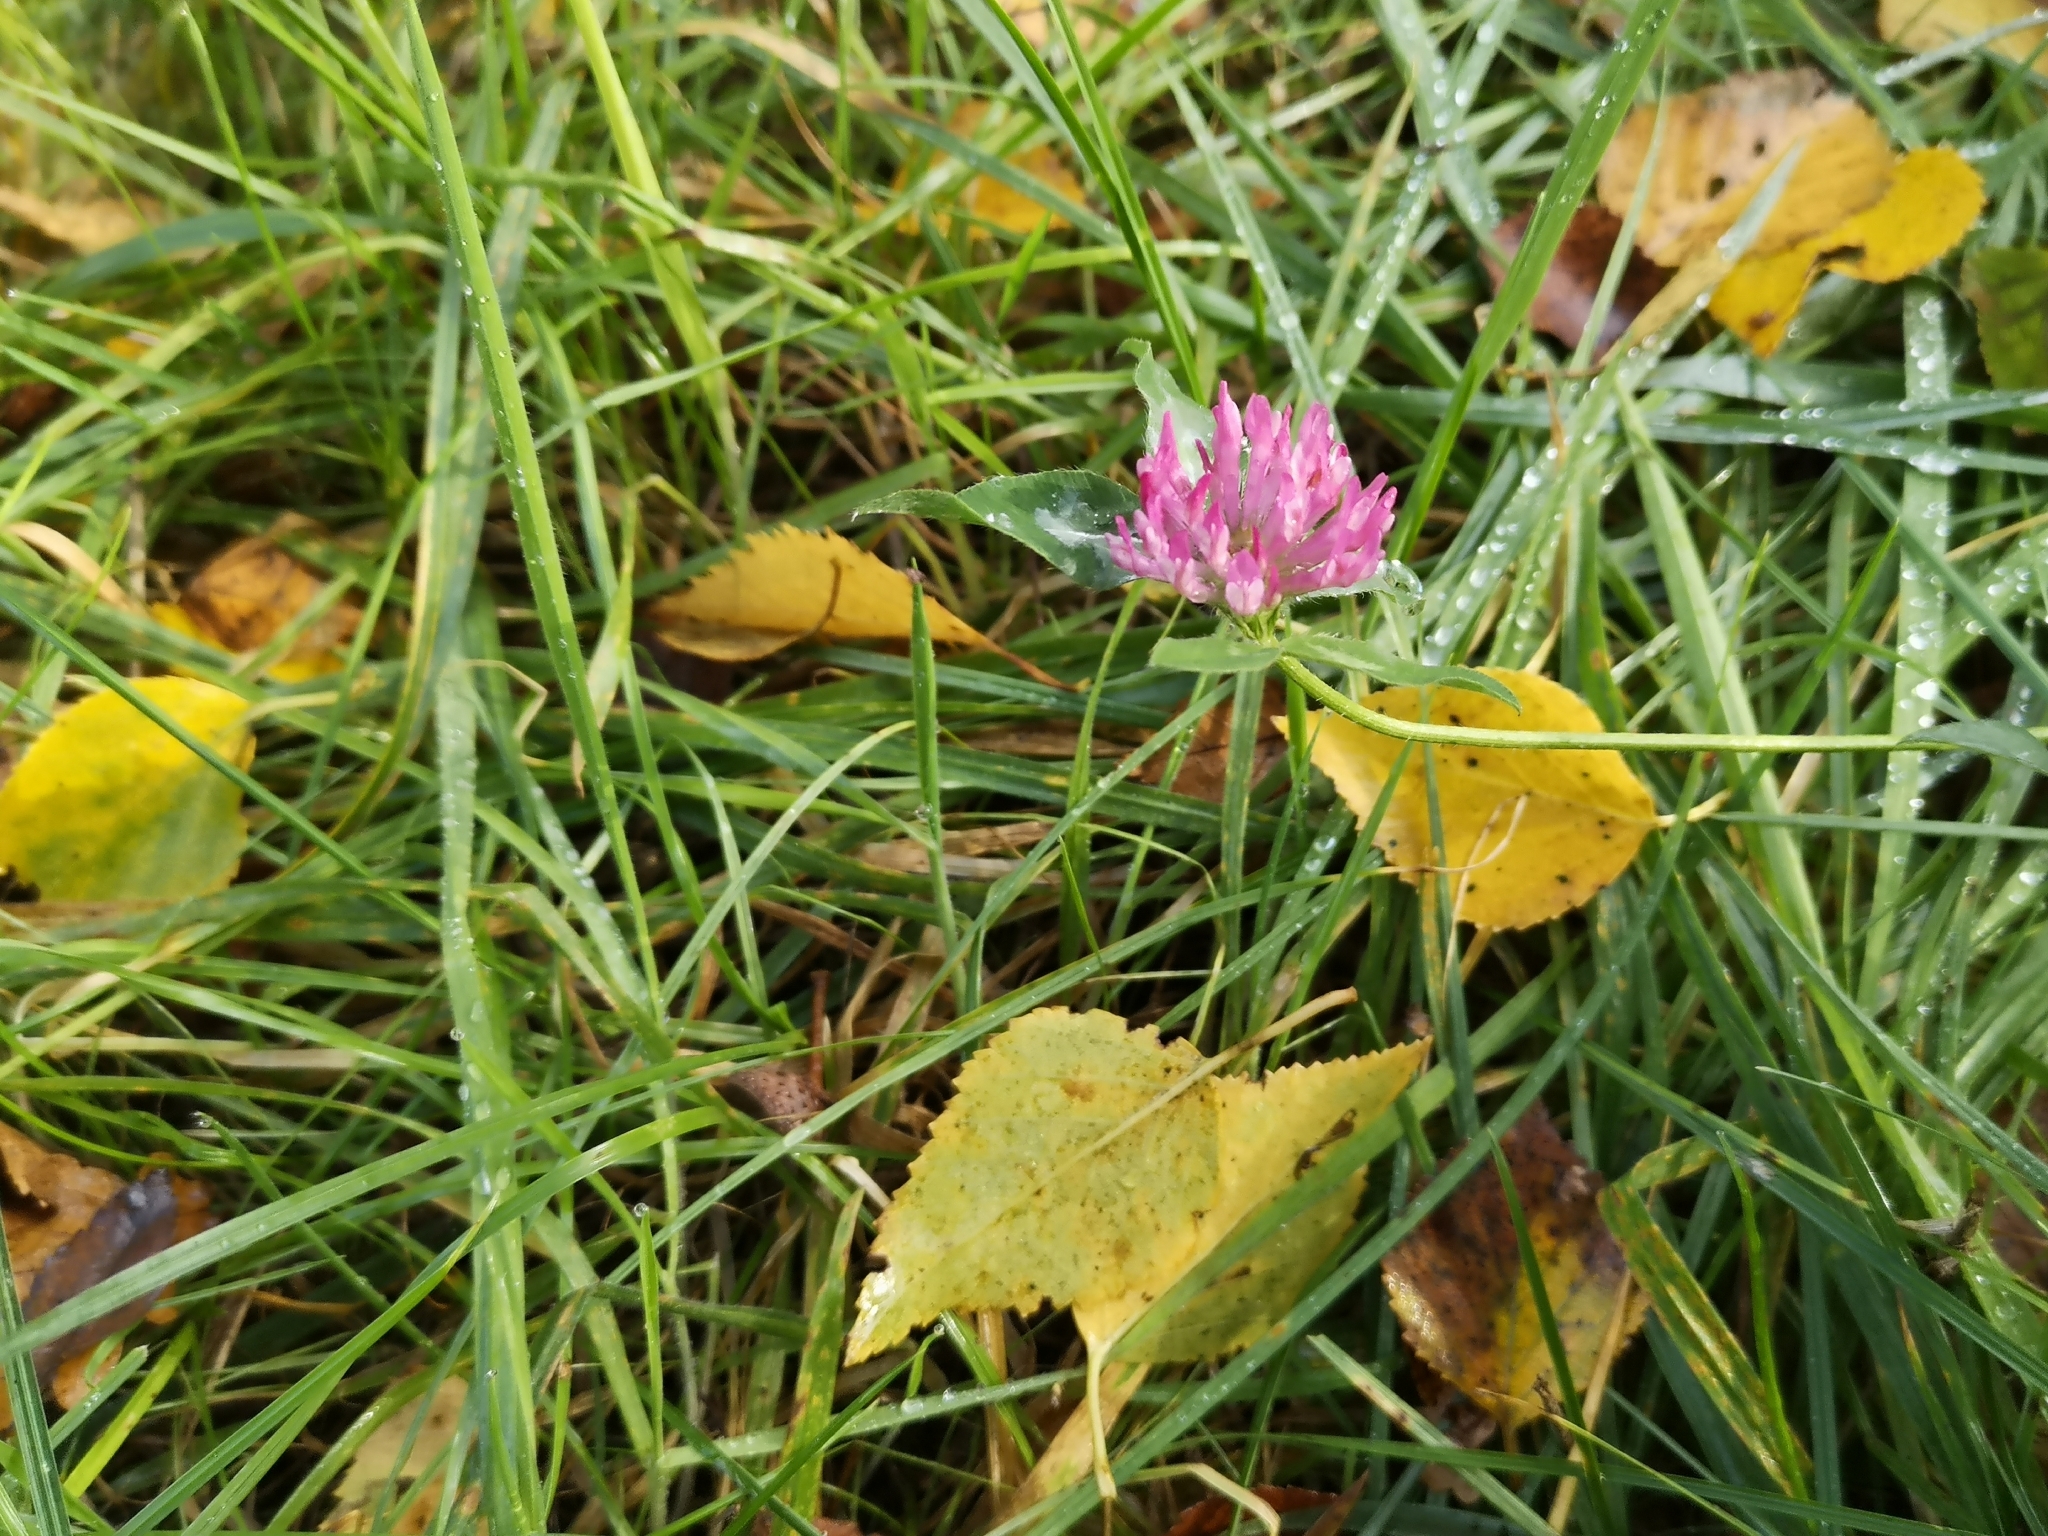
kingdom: Plantae
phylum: Tracheophyta
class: Magnoliopsida
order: Fabales
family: Fabaceae
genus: Trifolium
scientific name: Trifolium pratense
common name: Red clover
